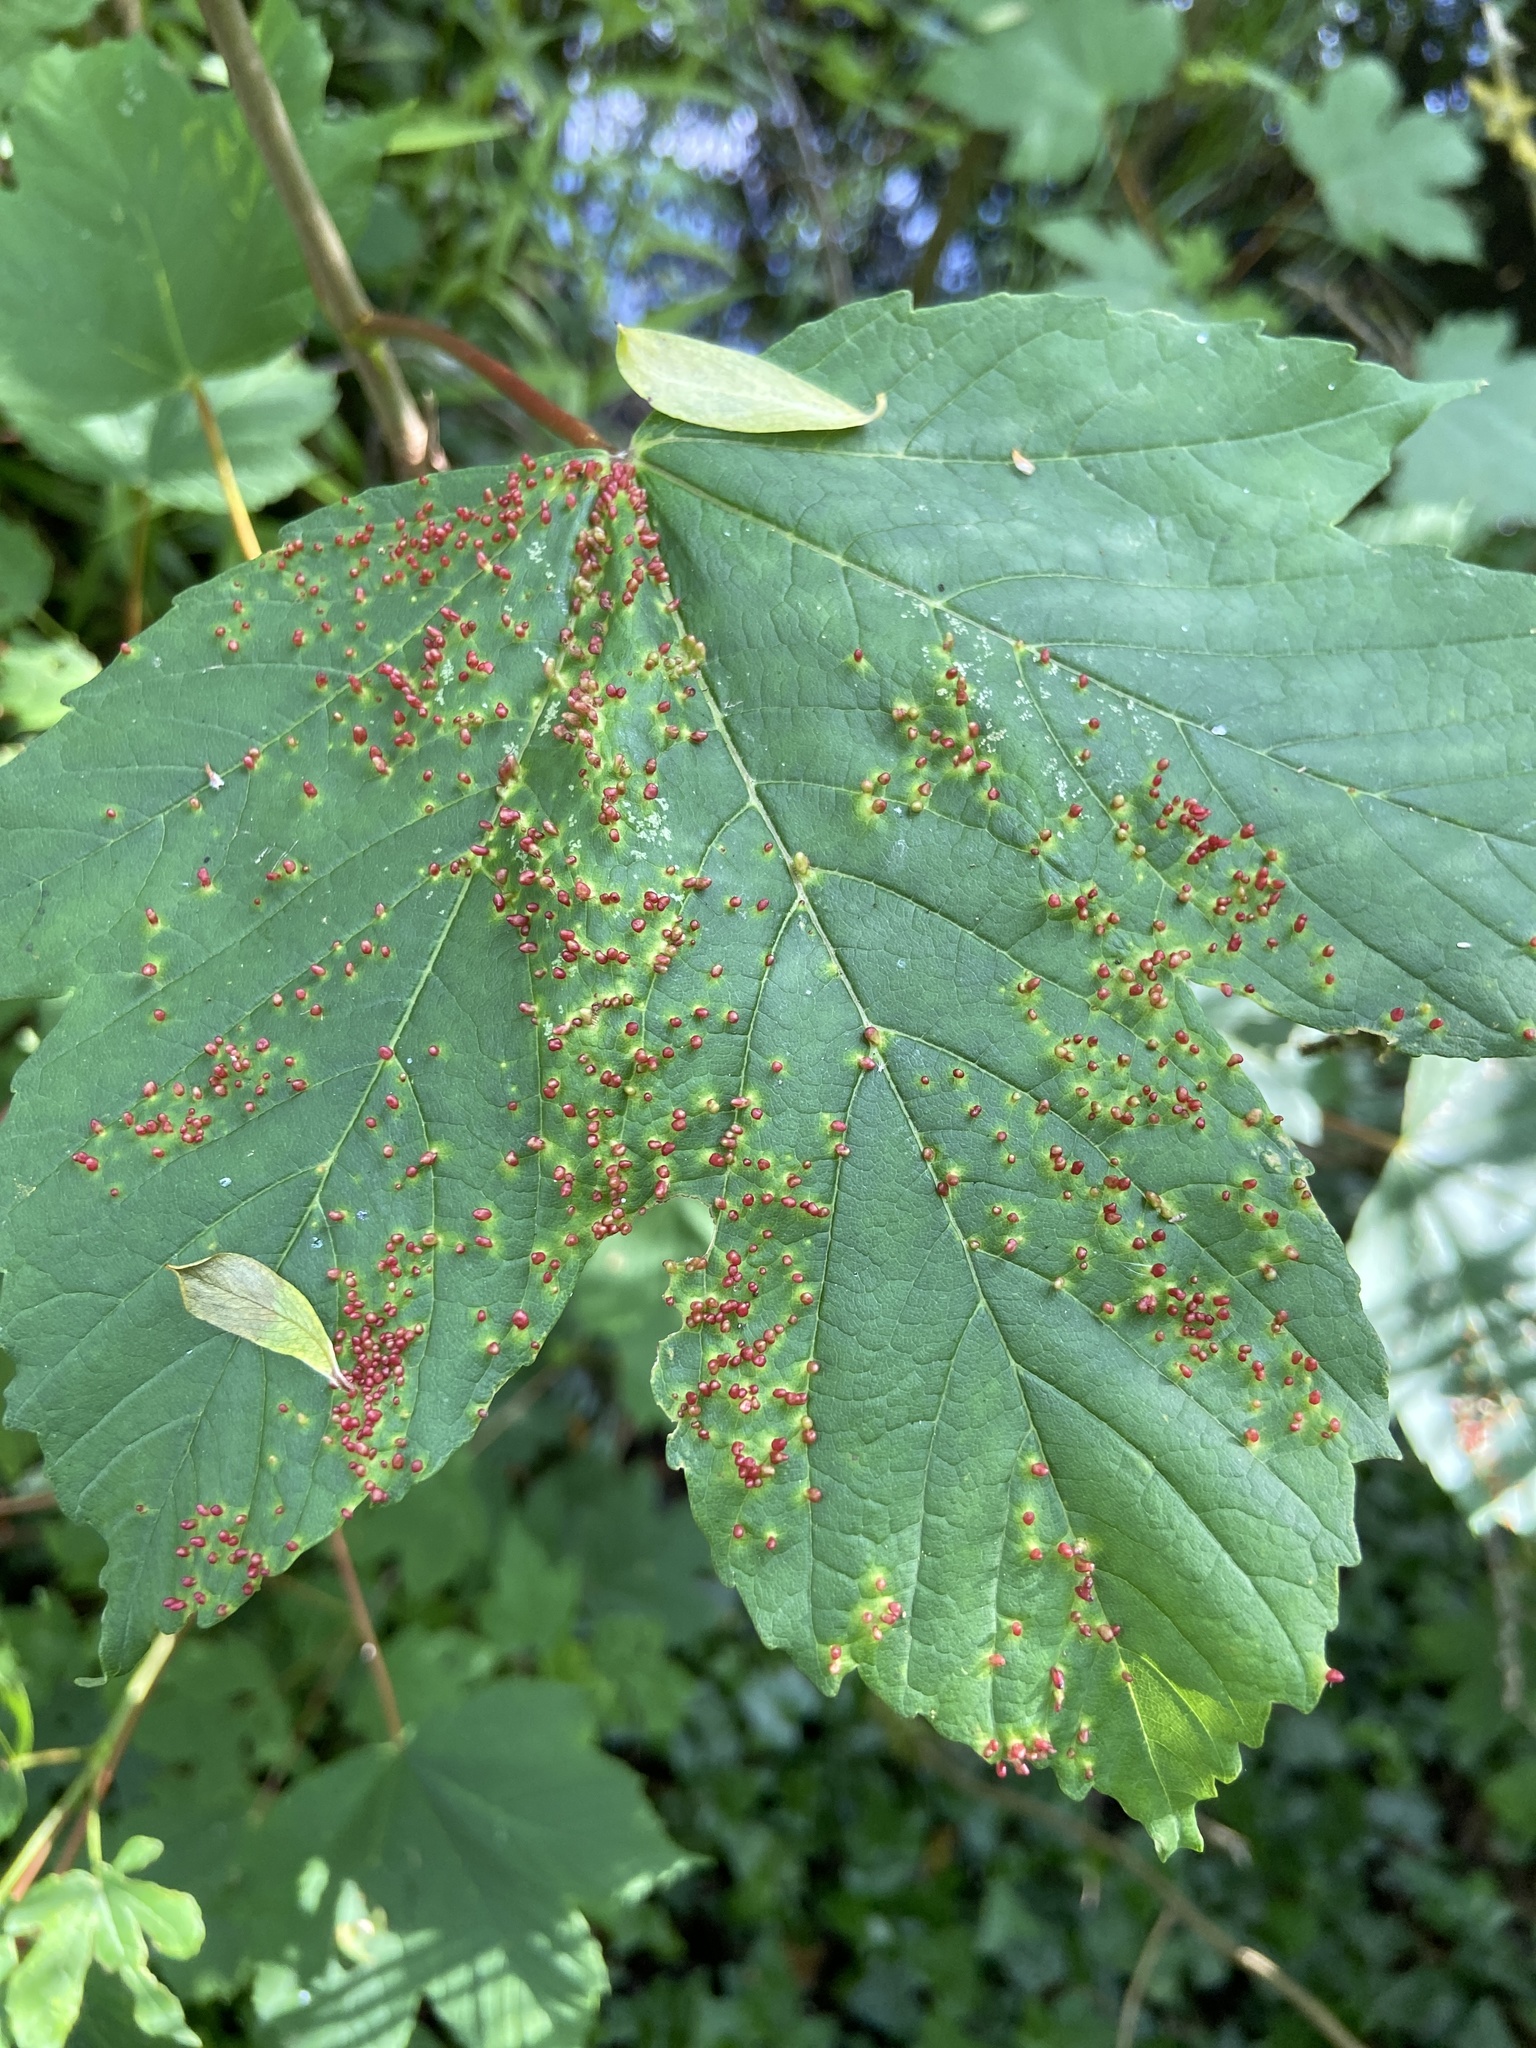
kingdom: Animalia
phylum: Arthropoda
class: Arachnida
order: Trombidiformes
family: Eriophyidae
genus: Aceria
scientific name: Aceria cephaloneus
